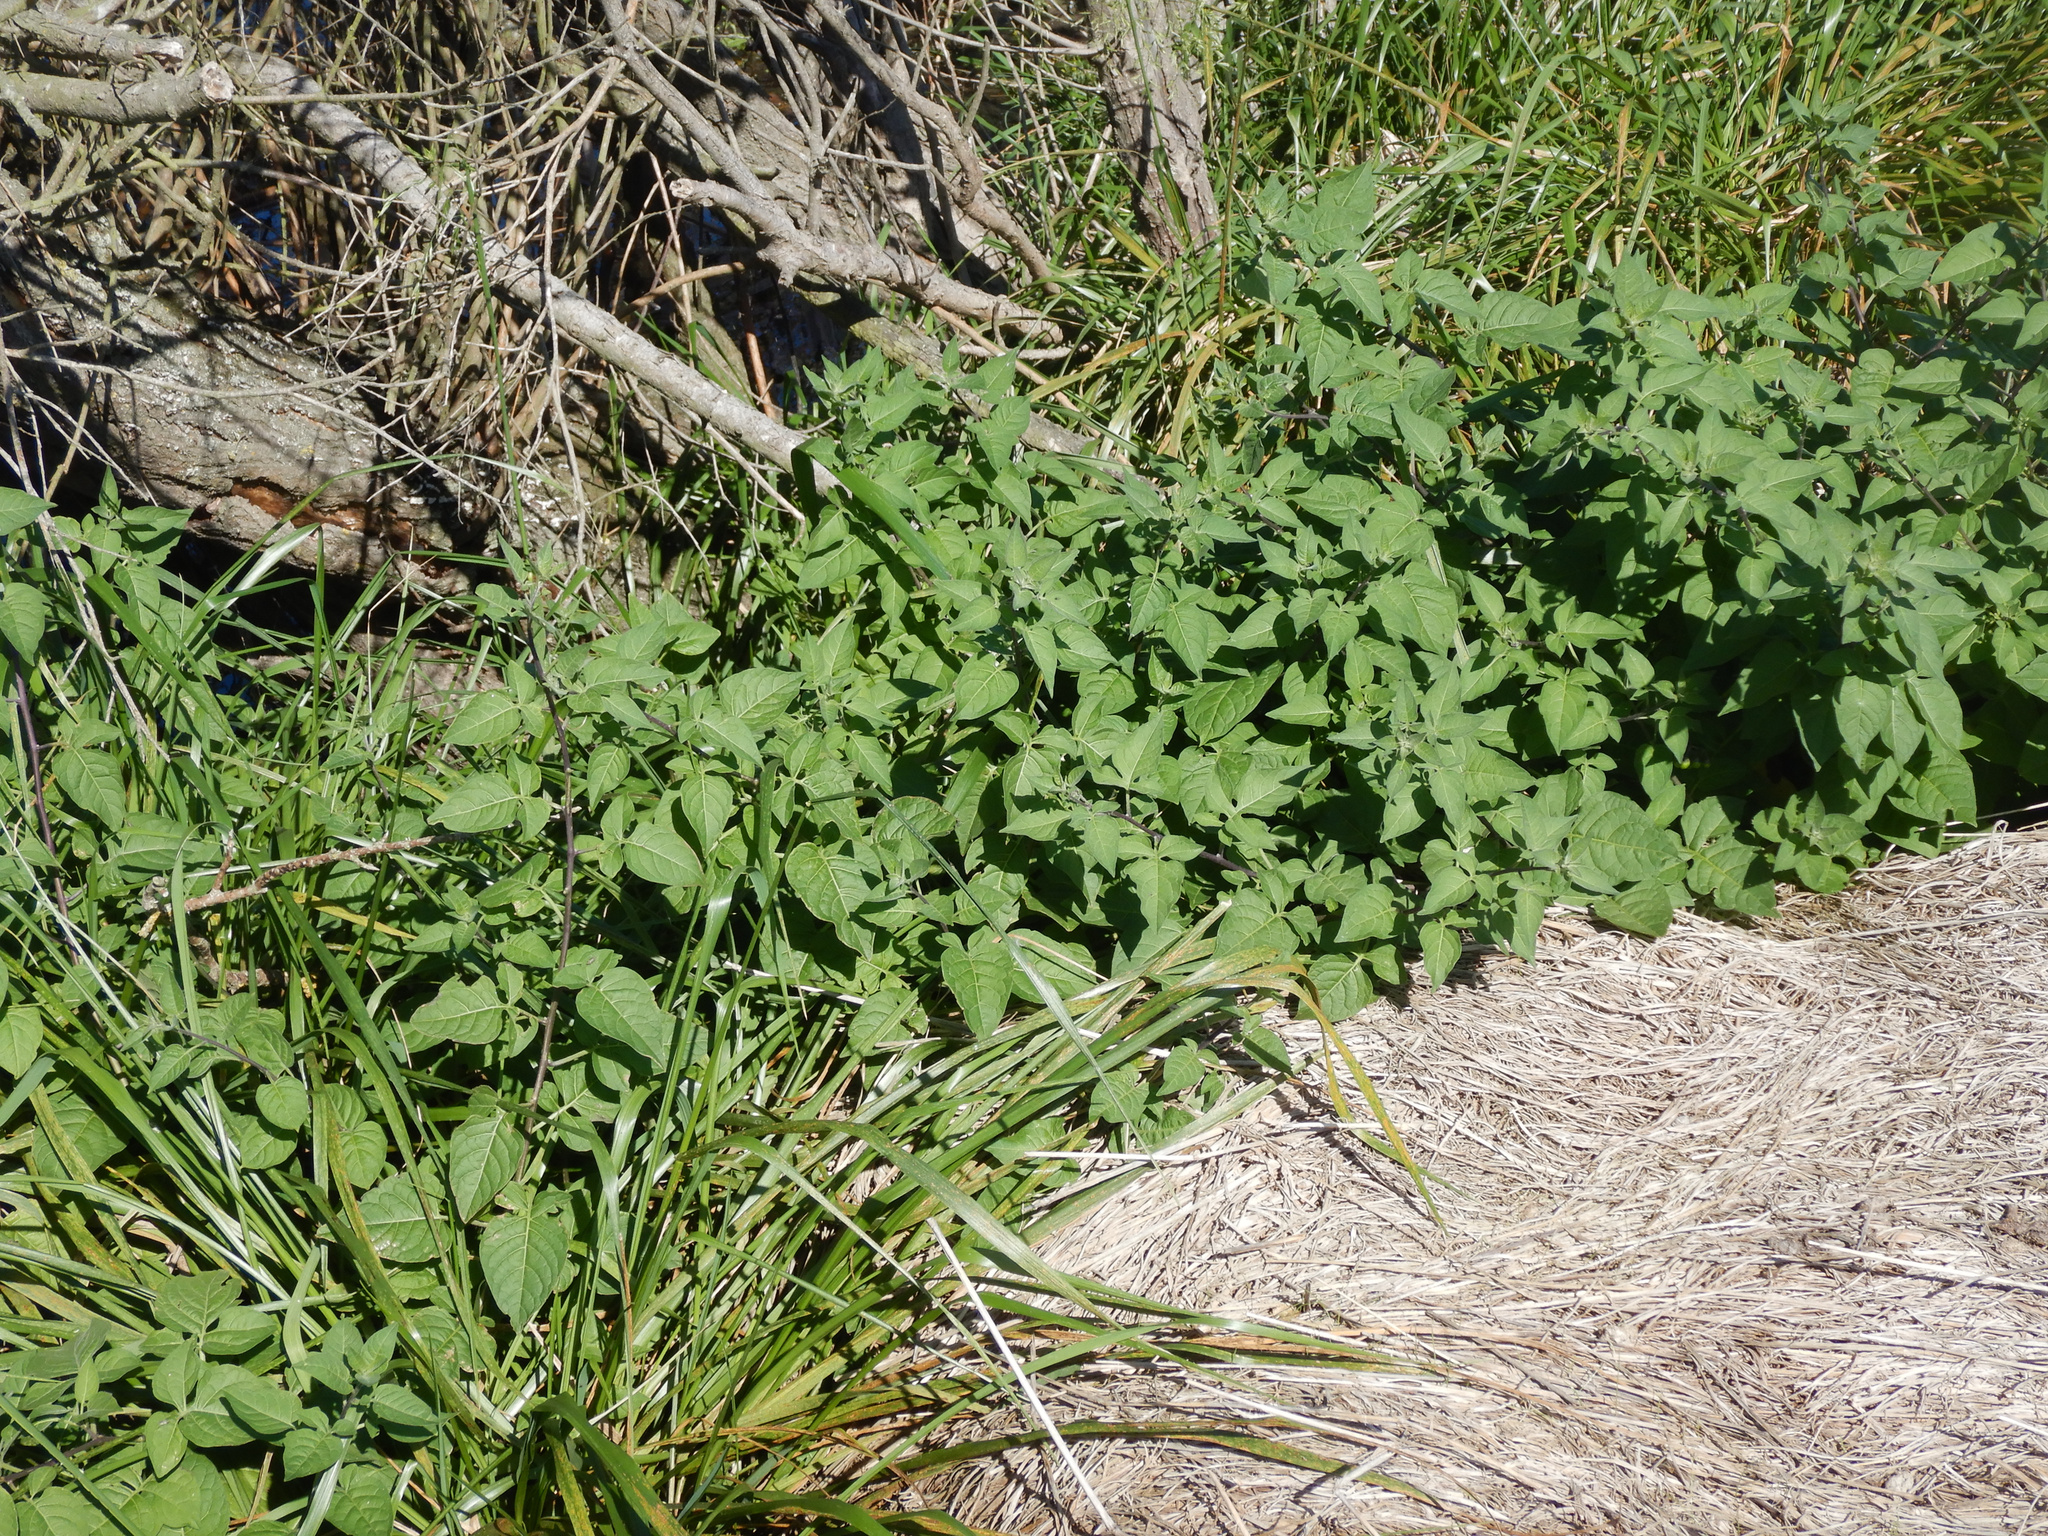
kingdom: Plantae
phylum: Tracheophyta
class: Magnoliopsida
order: Solanales
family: Solanaceae
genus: Solanum
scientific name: Solanum dulcamara
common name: Climbing nightshade
